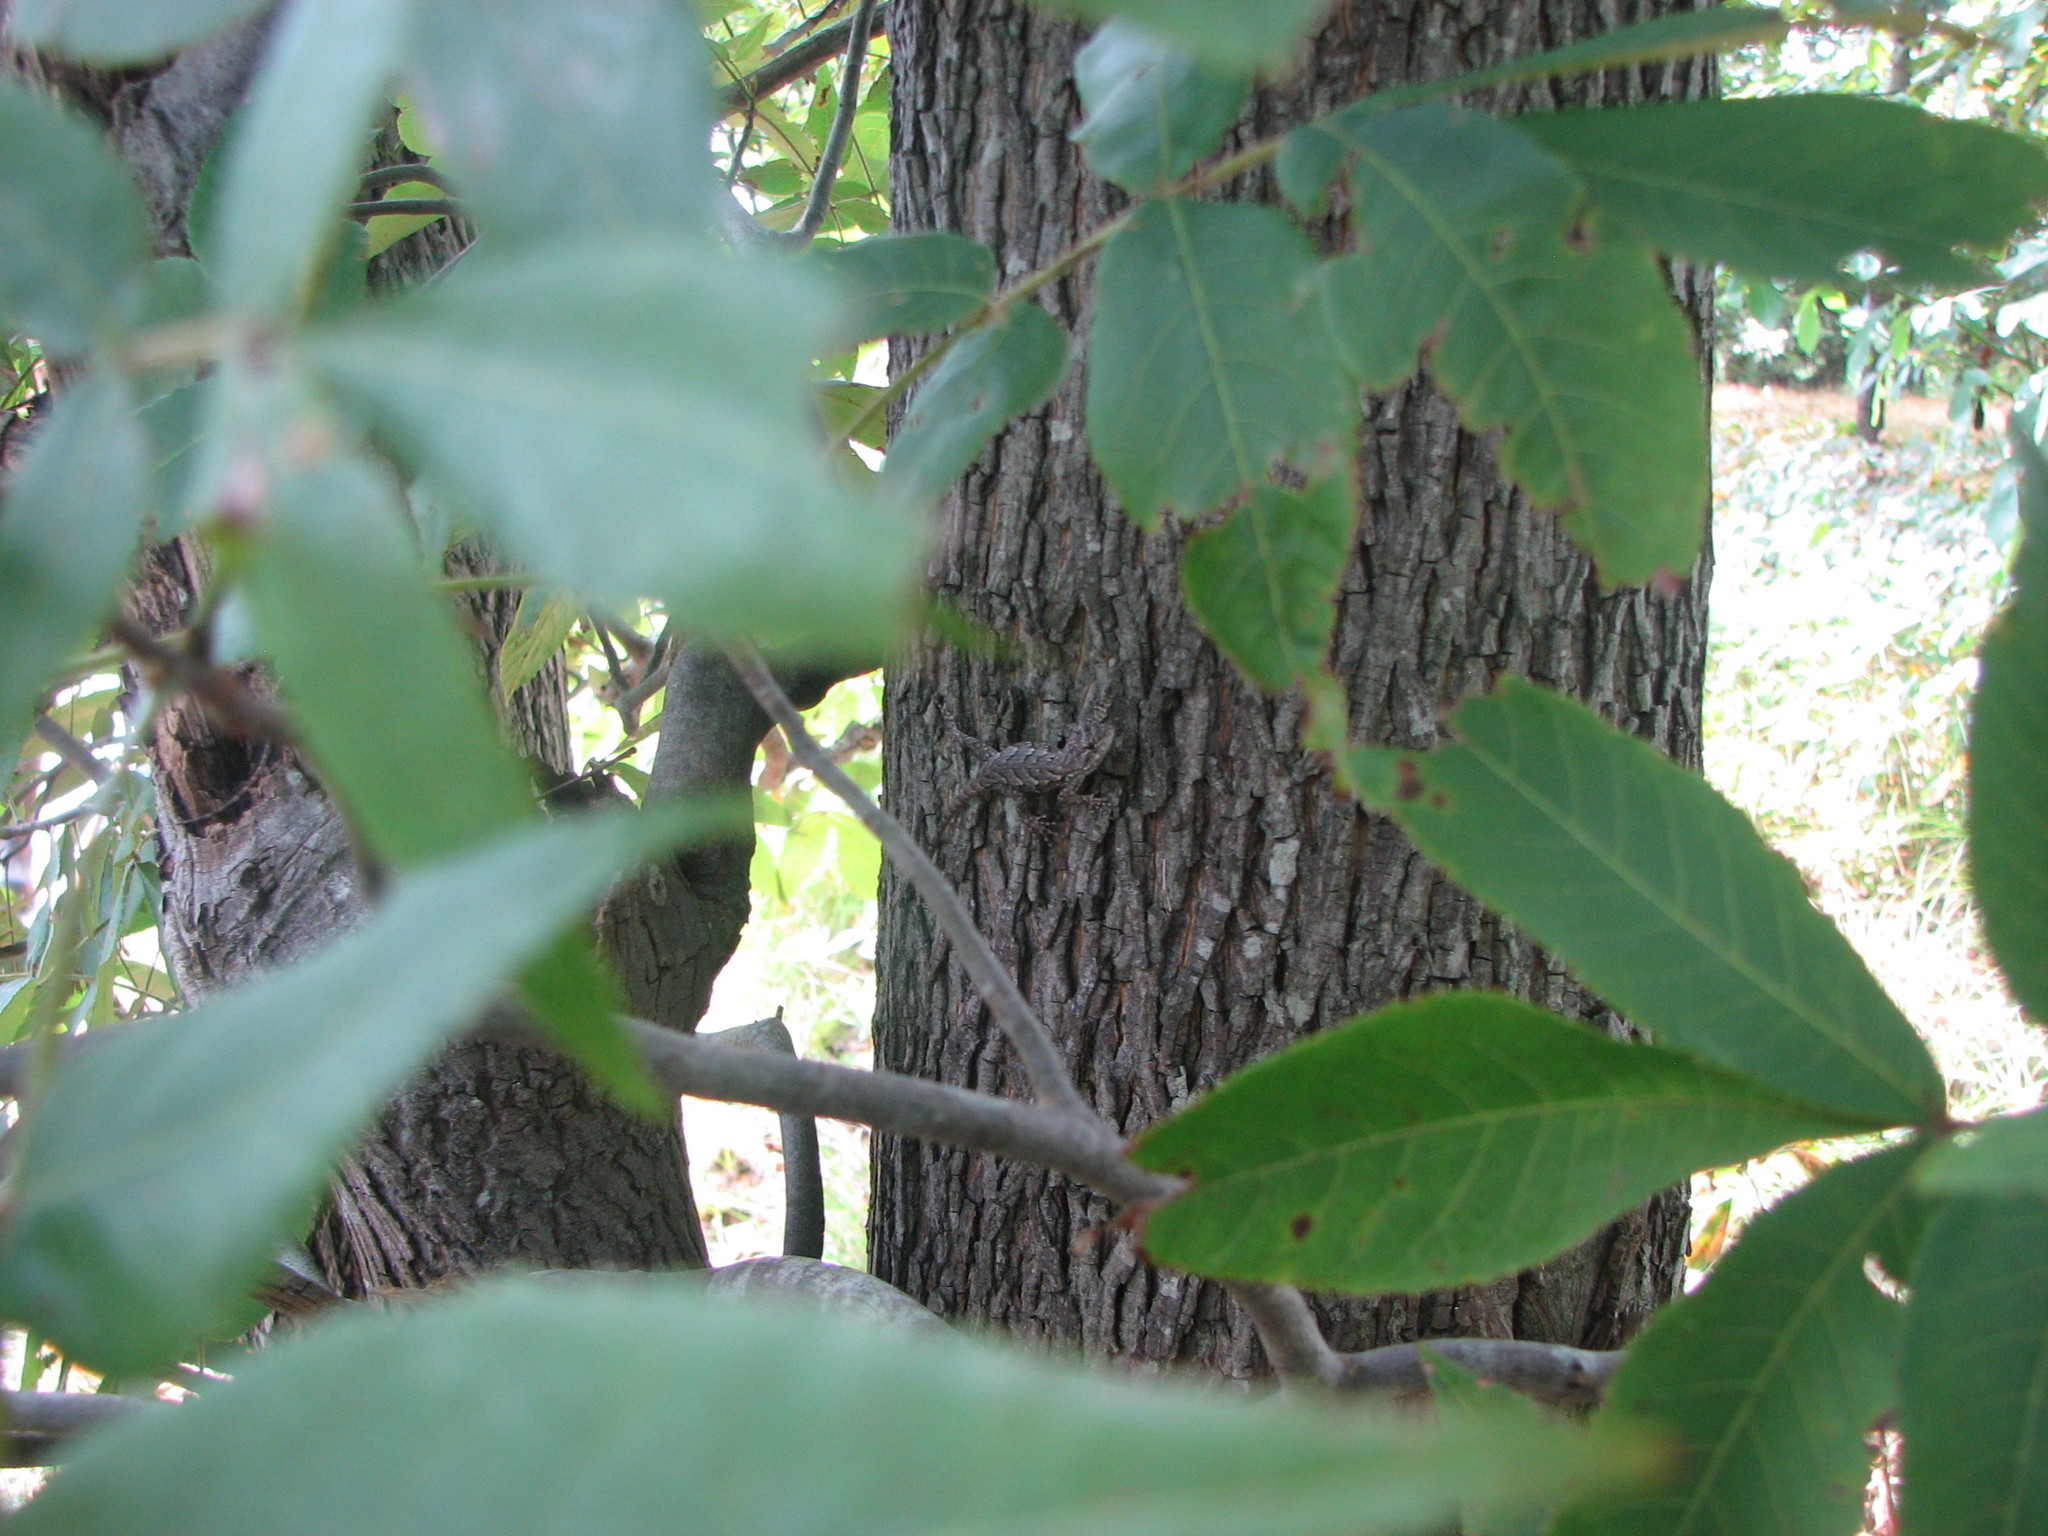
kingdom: Animalia
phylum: Chordata
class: Squamata
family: Phrynosomatidae
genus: Sceloporus
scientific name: Sceloporus undulatus
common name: Eastern fence lizard
